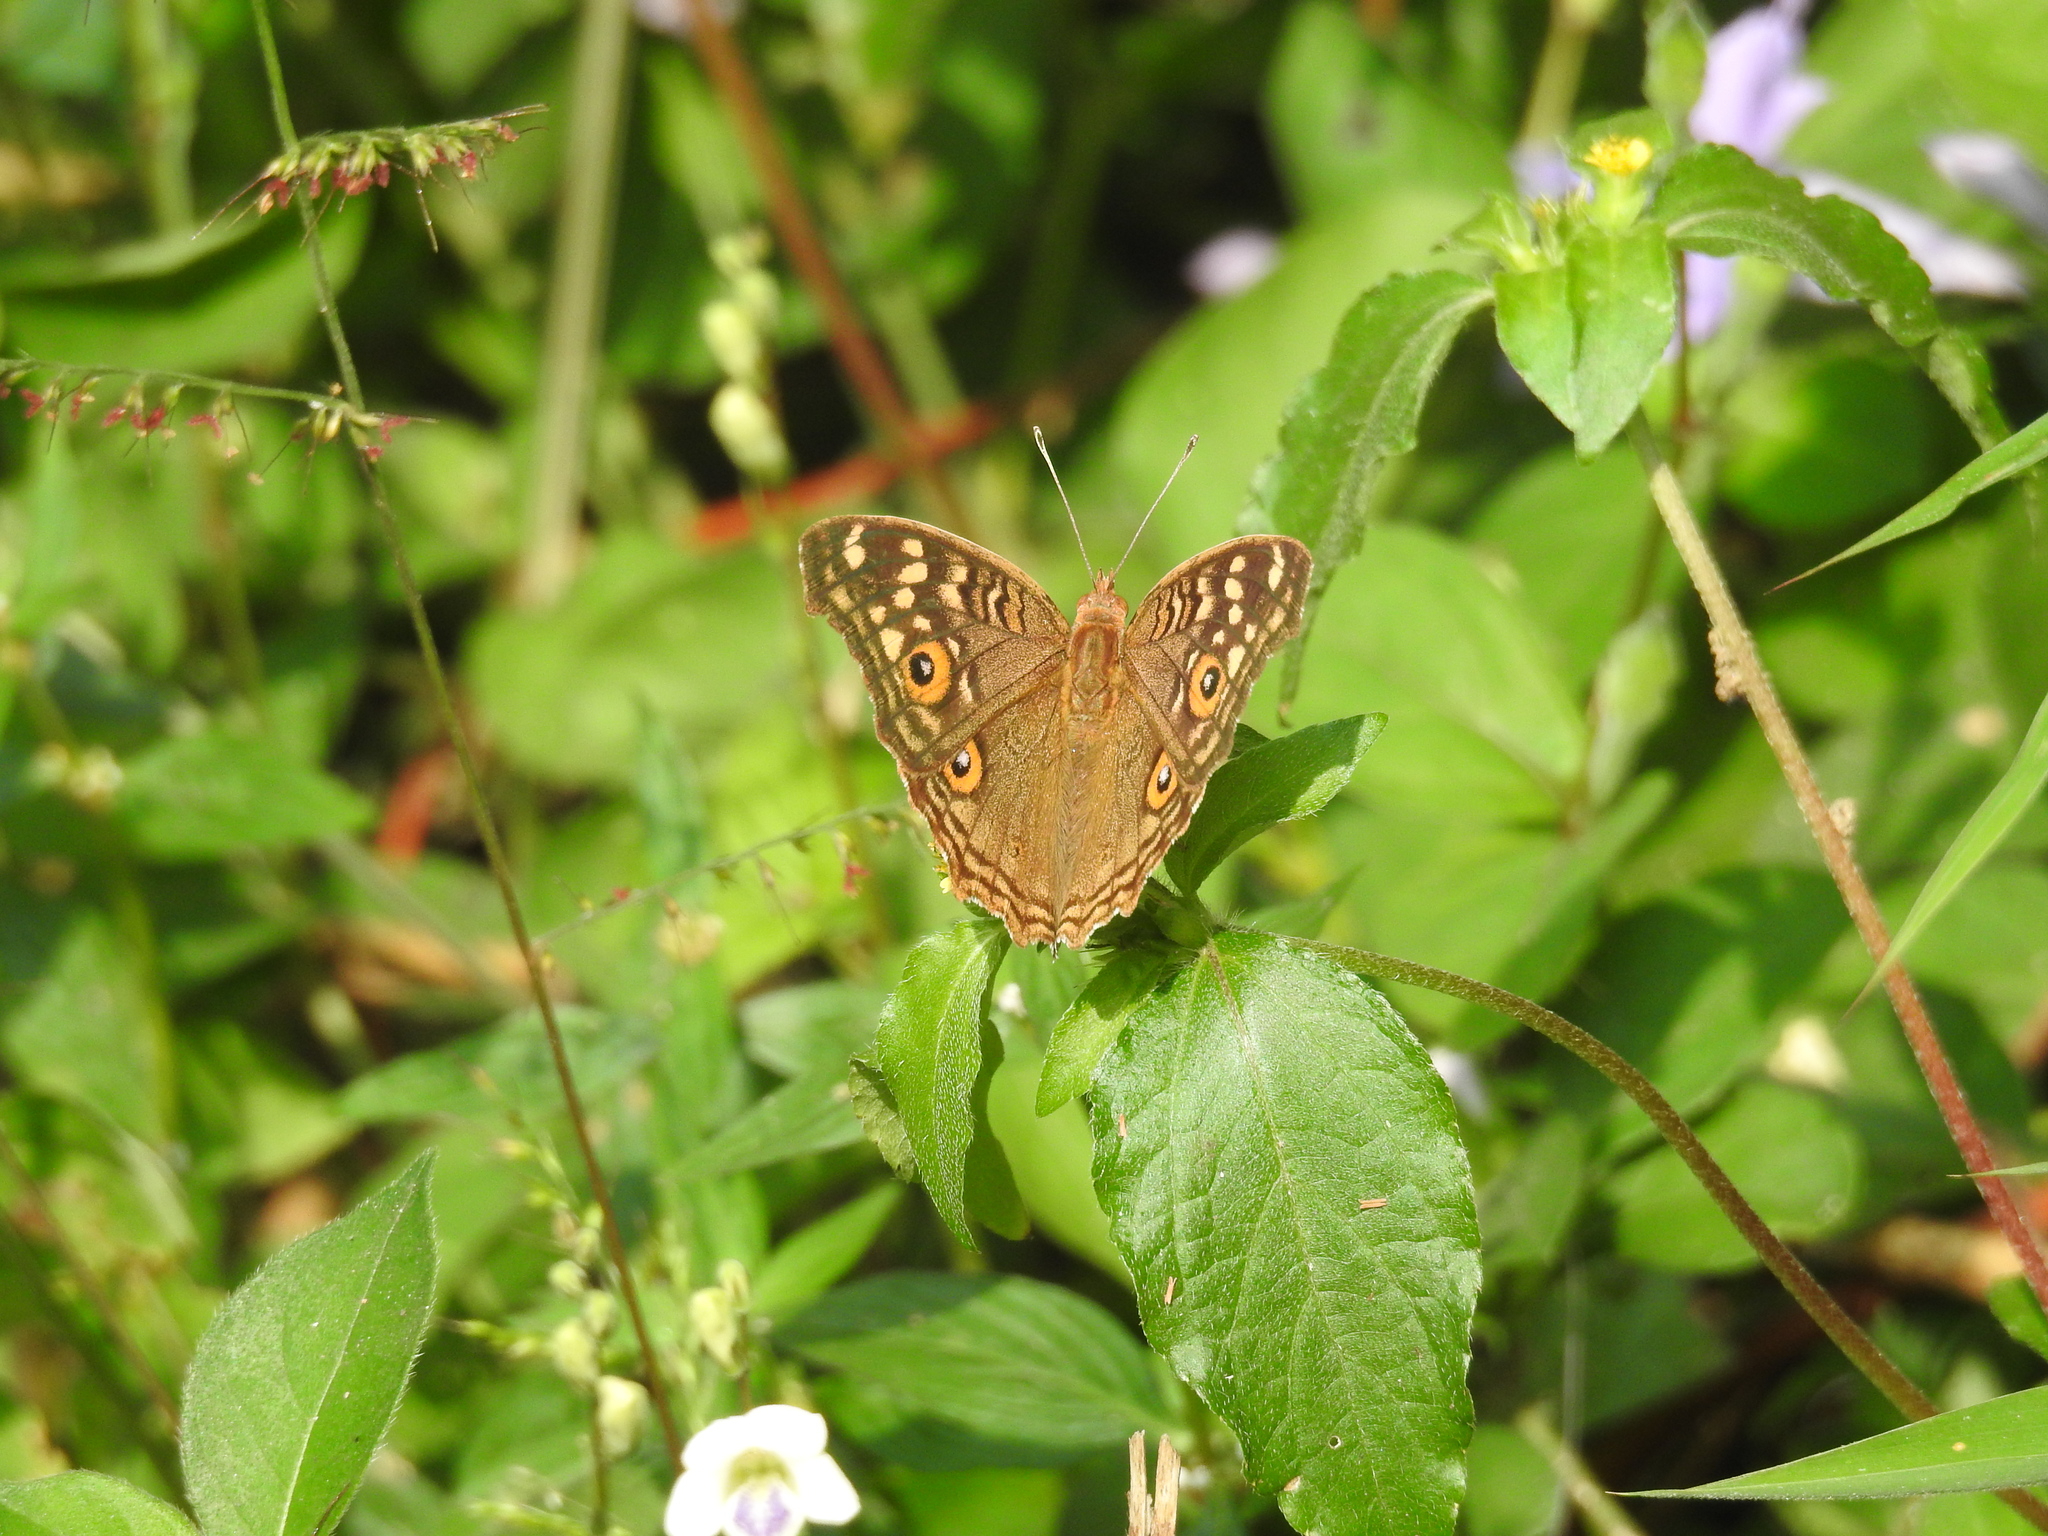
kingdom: Animalia
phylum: Arthropoda
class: Insecta
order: Lepidoptera
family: Nymphalidae
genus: Junonia
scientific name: Junonia lemonias
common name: Lemon pansy
